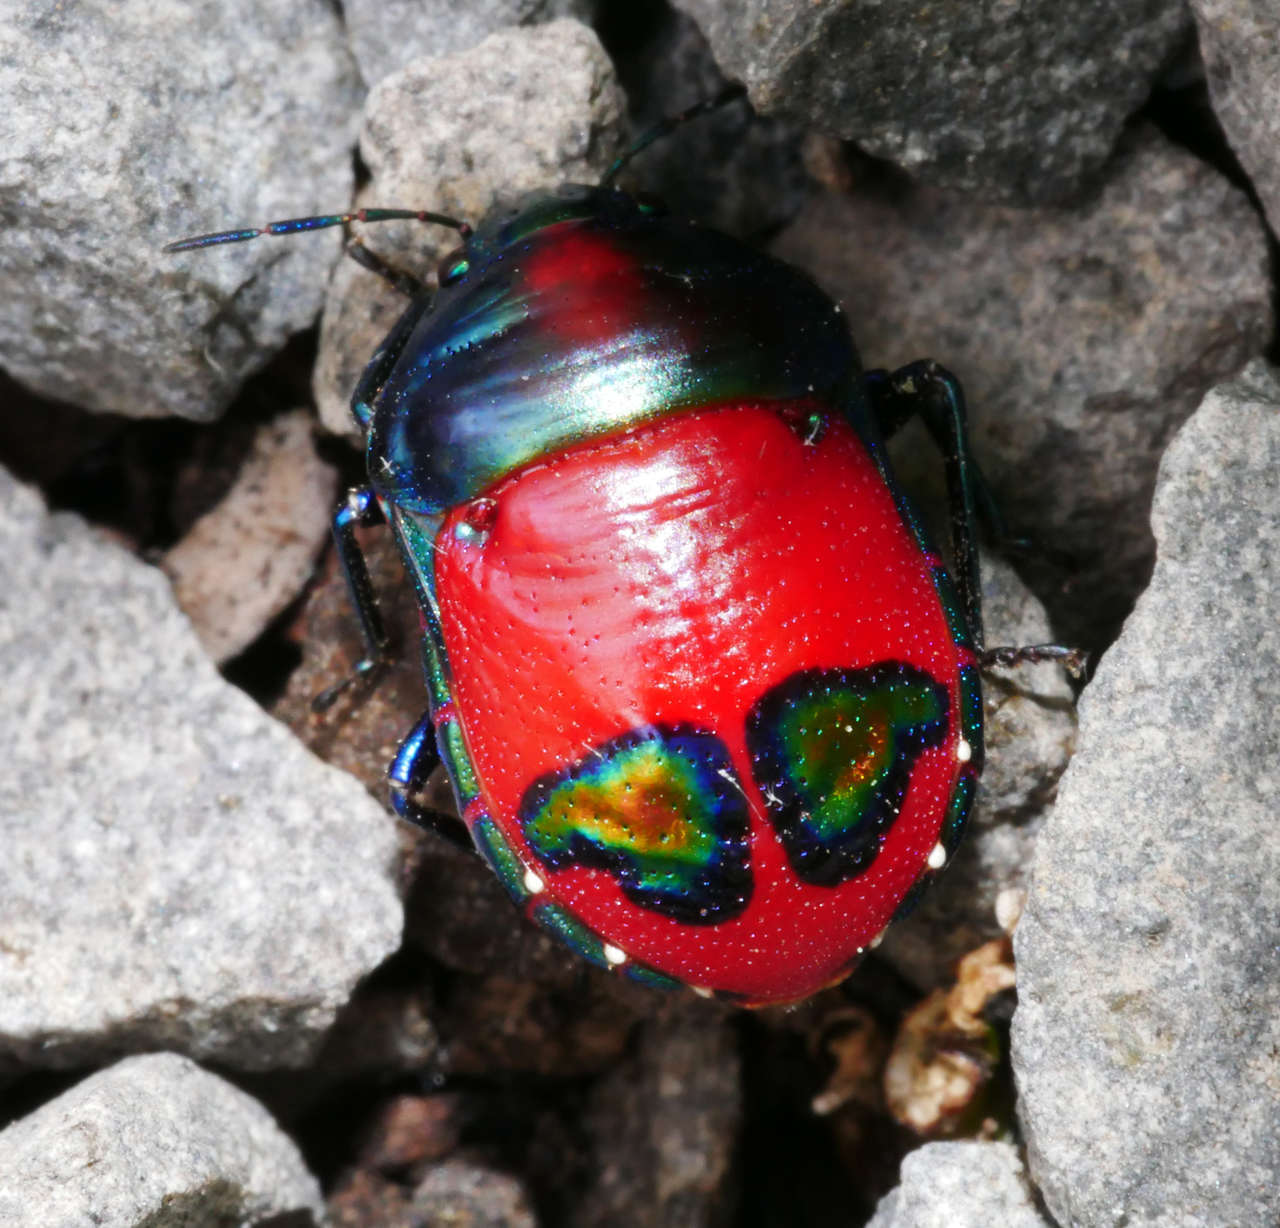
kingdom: Animalia
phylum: Arthropoda
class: Insecta
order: Hemiptera
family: Scutelleridae
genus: Choerocoris
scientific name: Choerocoris paganus
